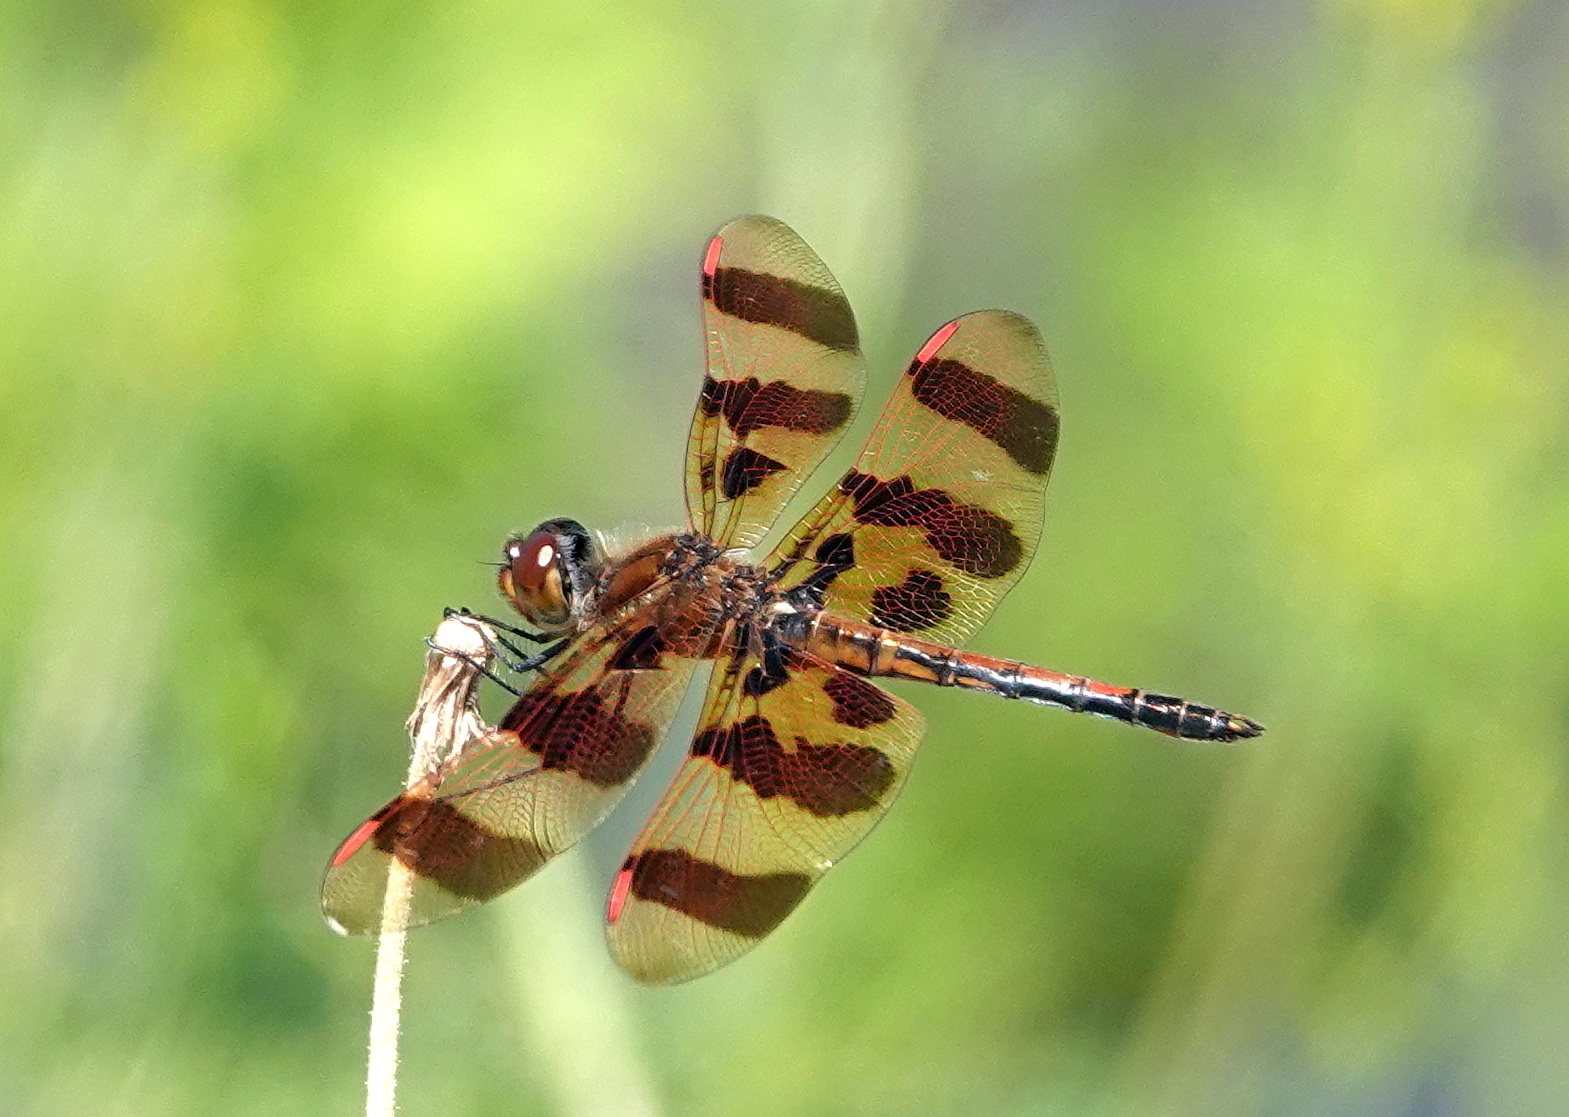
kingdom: Animalia
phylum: Arthropoda
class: Insecta
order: Odonata
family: Libellulidae
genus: Celithemis
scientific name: Celithemis eponina
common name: Halloween pennant
